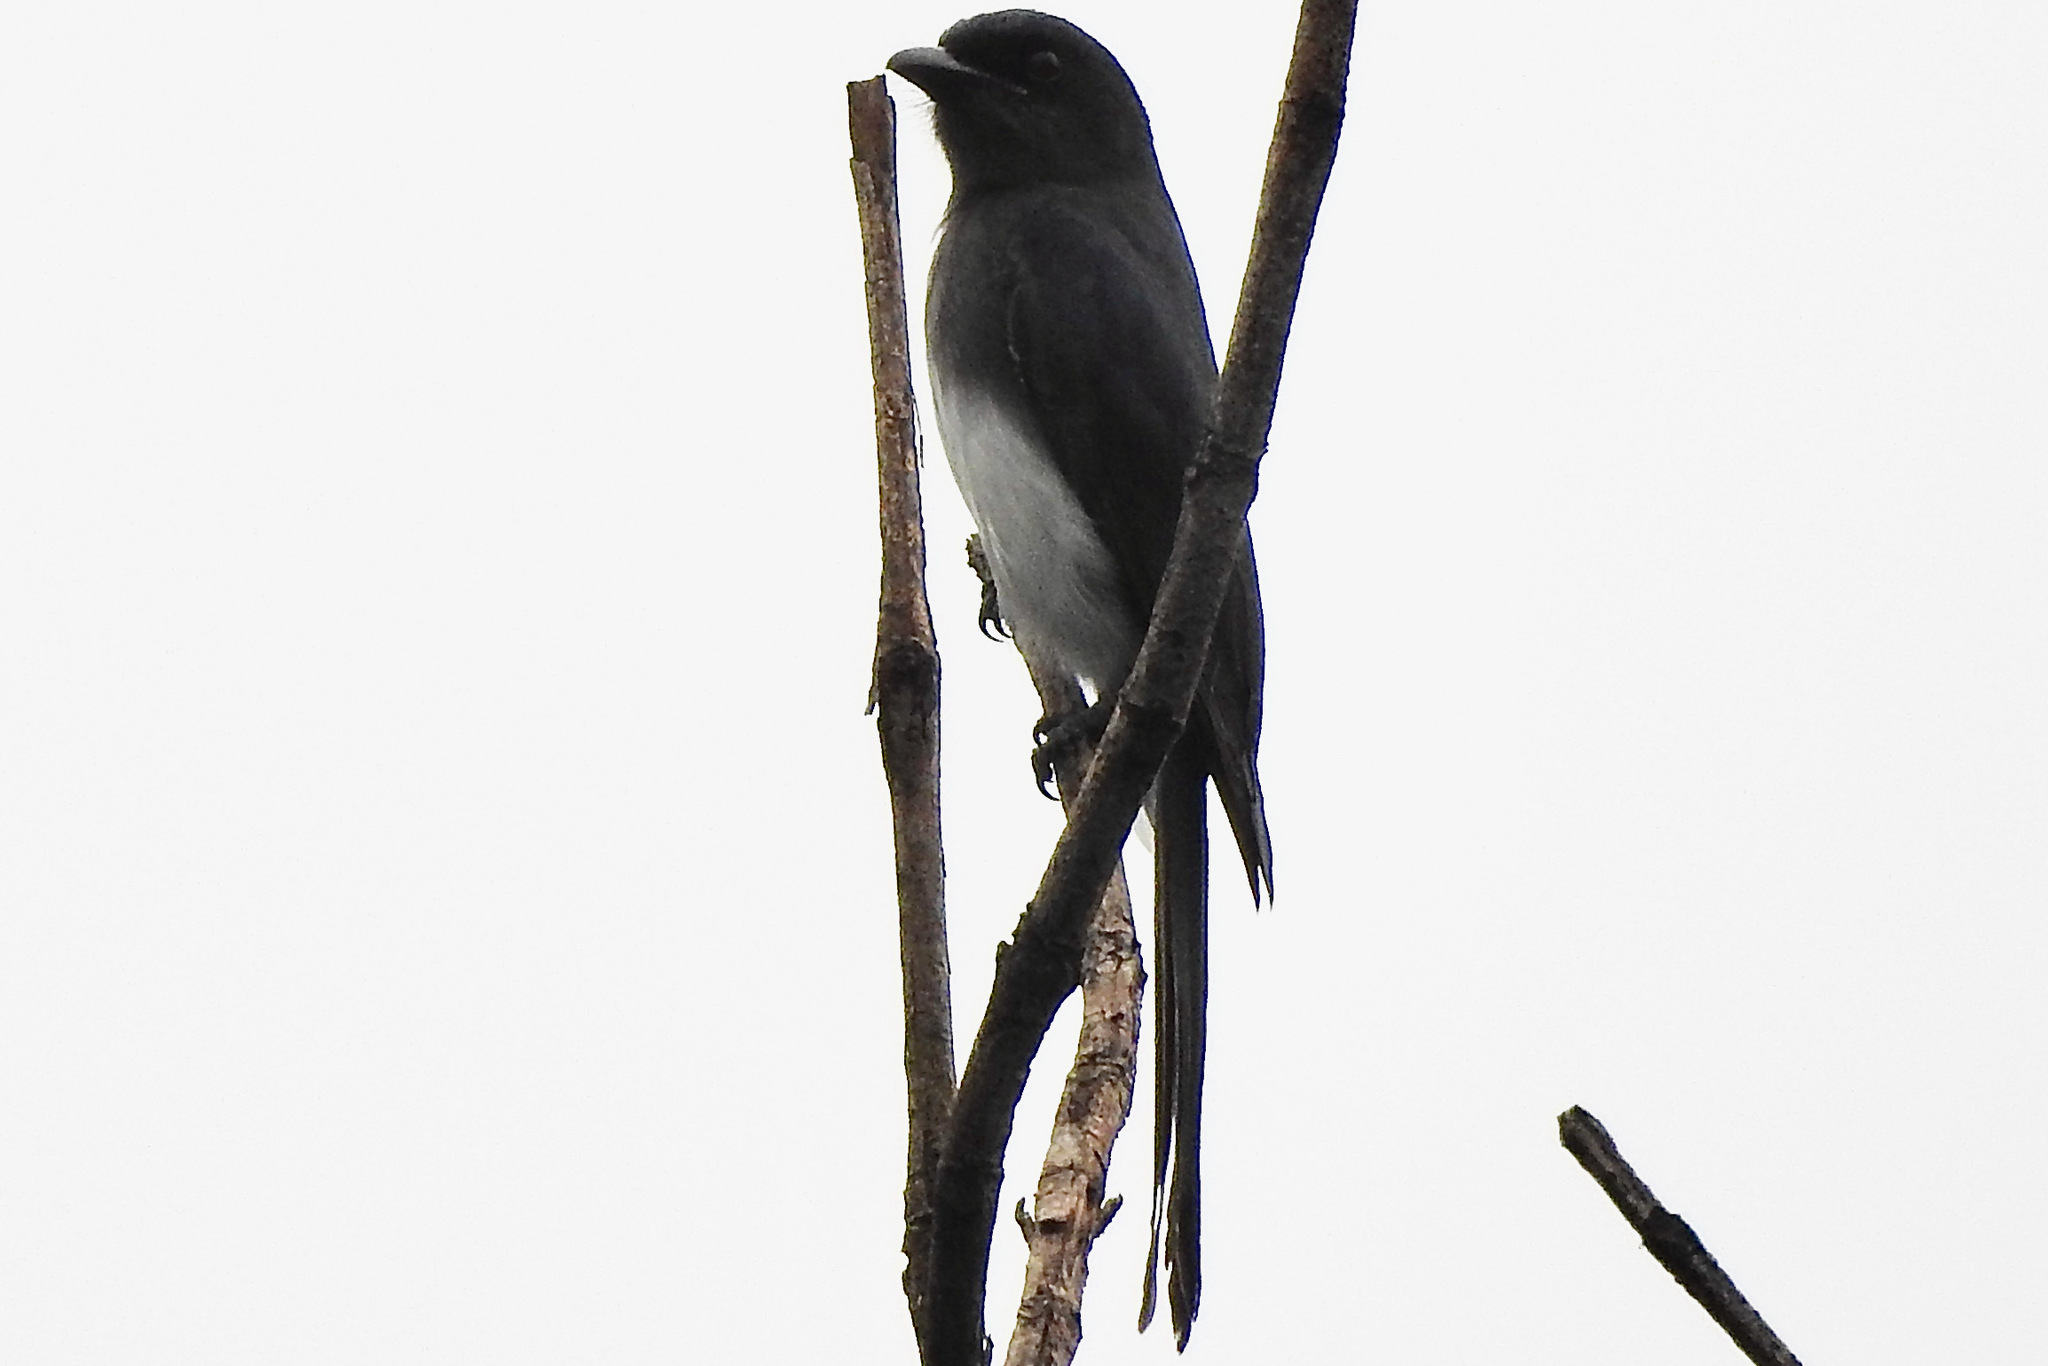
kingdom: Animalia
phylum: Chordata
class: Aves
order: Passeriformes
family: Dicruridae
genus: Dicrurus
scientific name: Dicrurus caerulescens
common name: White-bellied drongo
